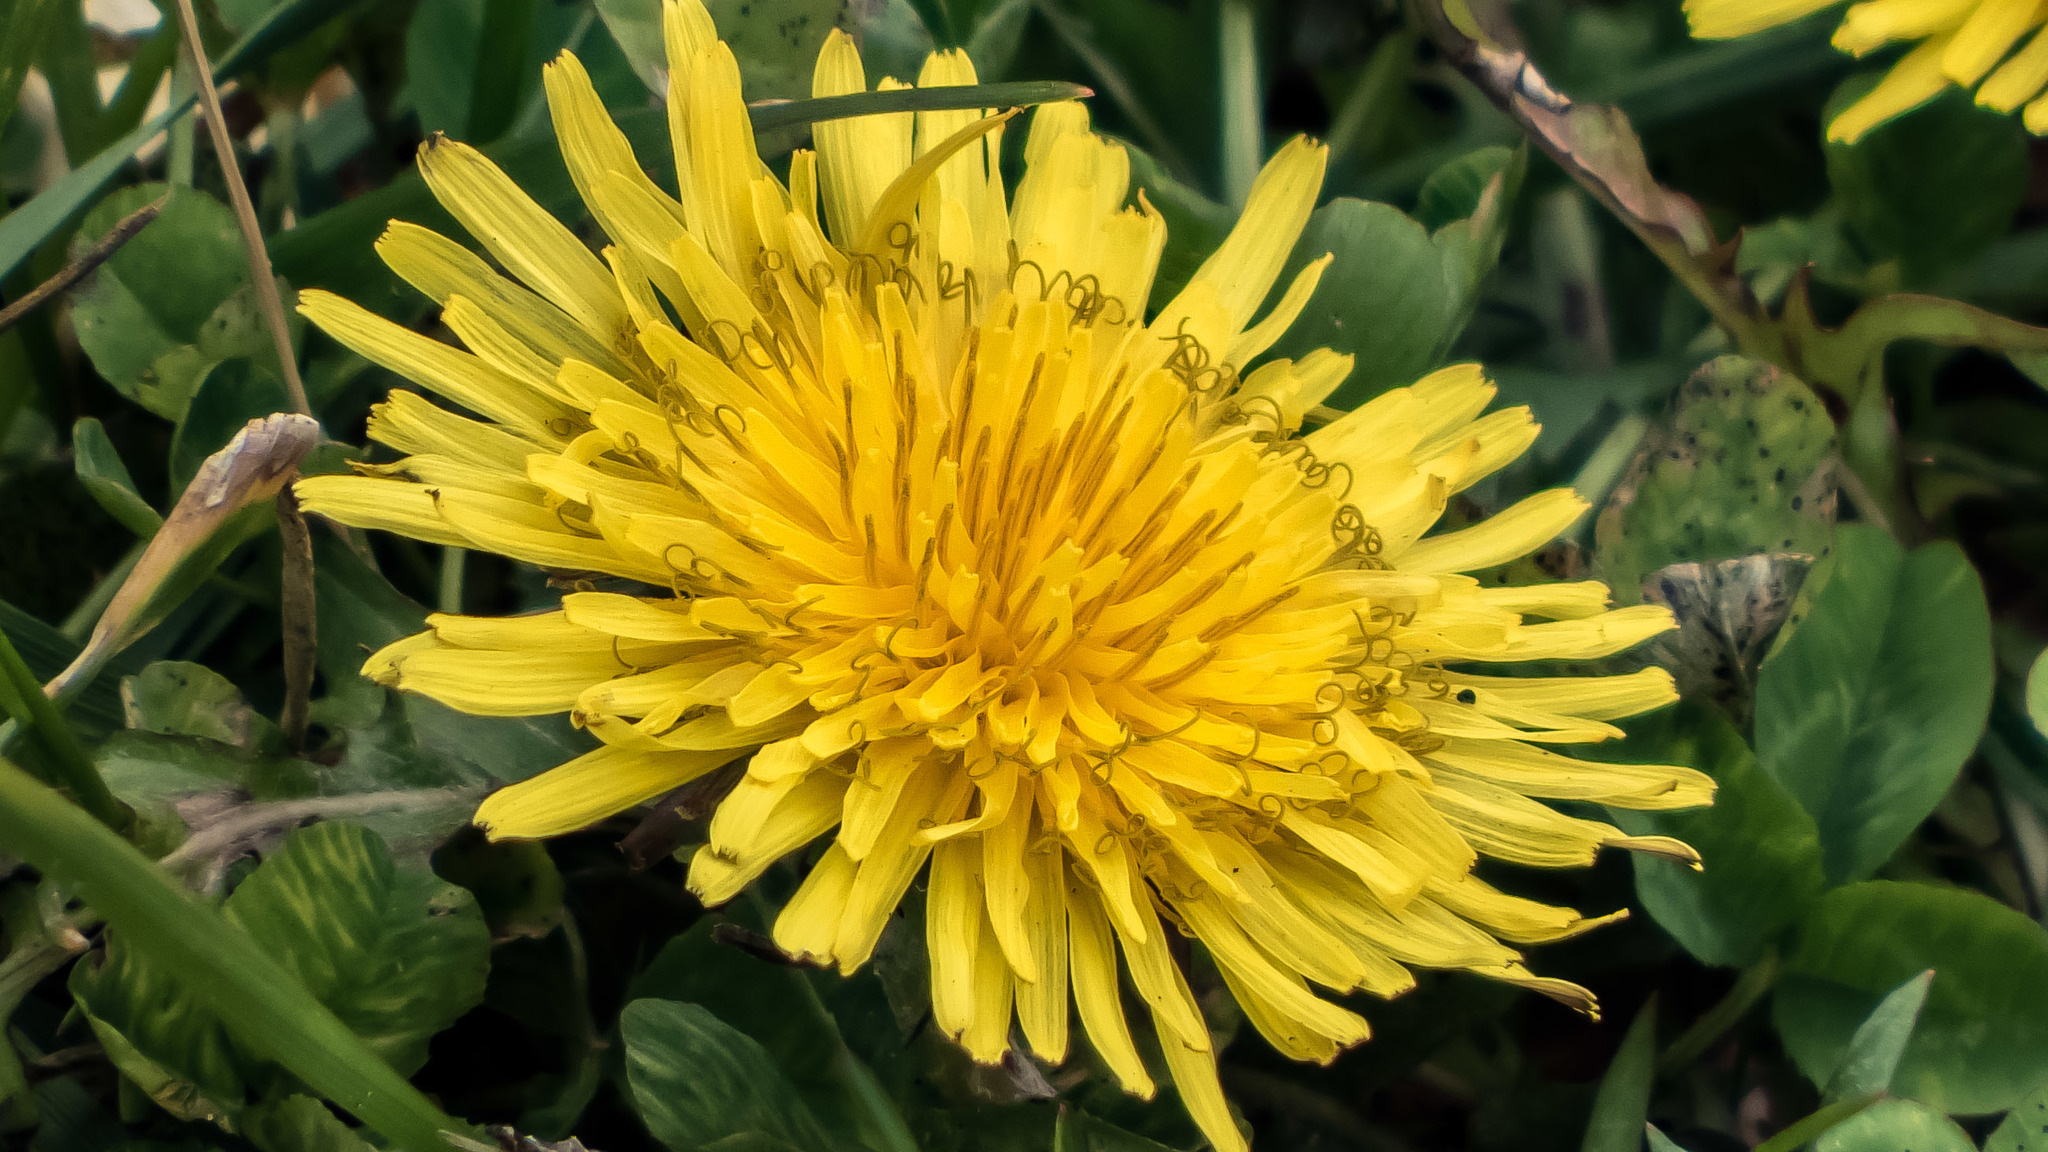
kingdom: Plantae
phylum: Tracheophyta
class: Magnoliopsida
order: Asterales
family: Asteraceae
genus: Taraxacum
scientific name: Taraxacum officinale
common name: Common dandelion
